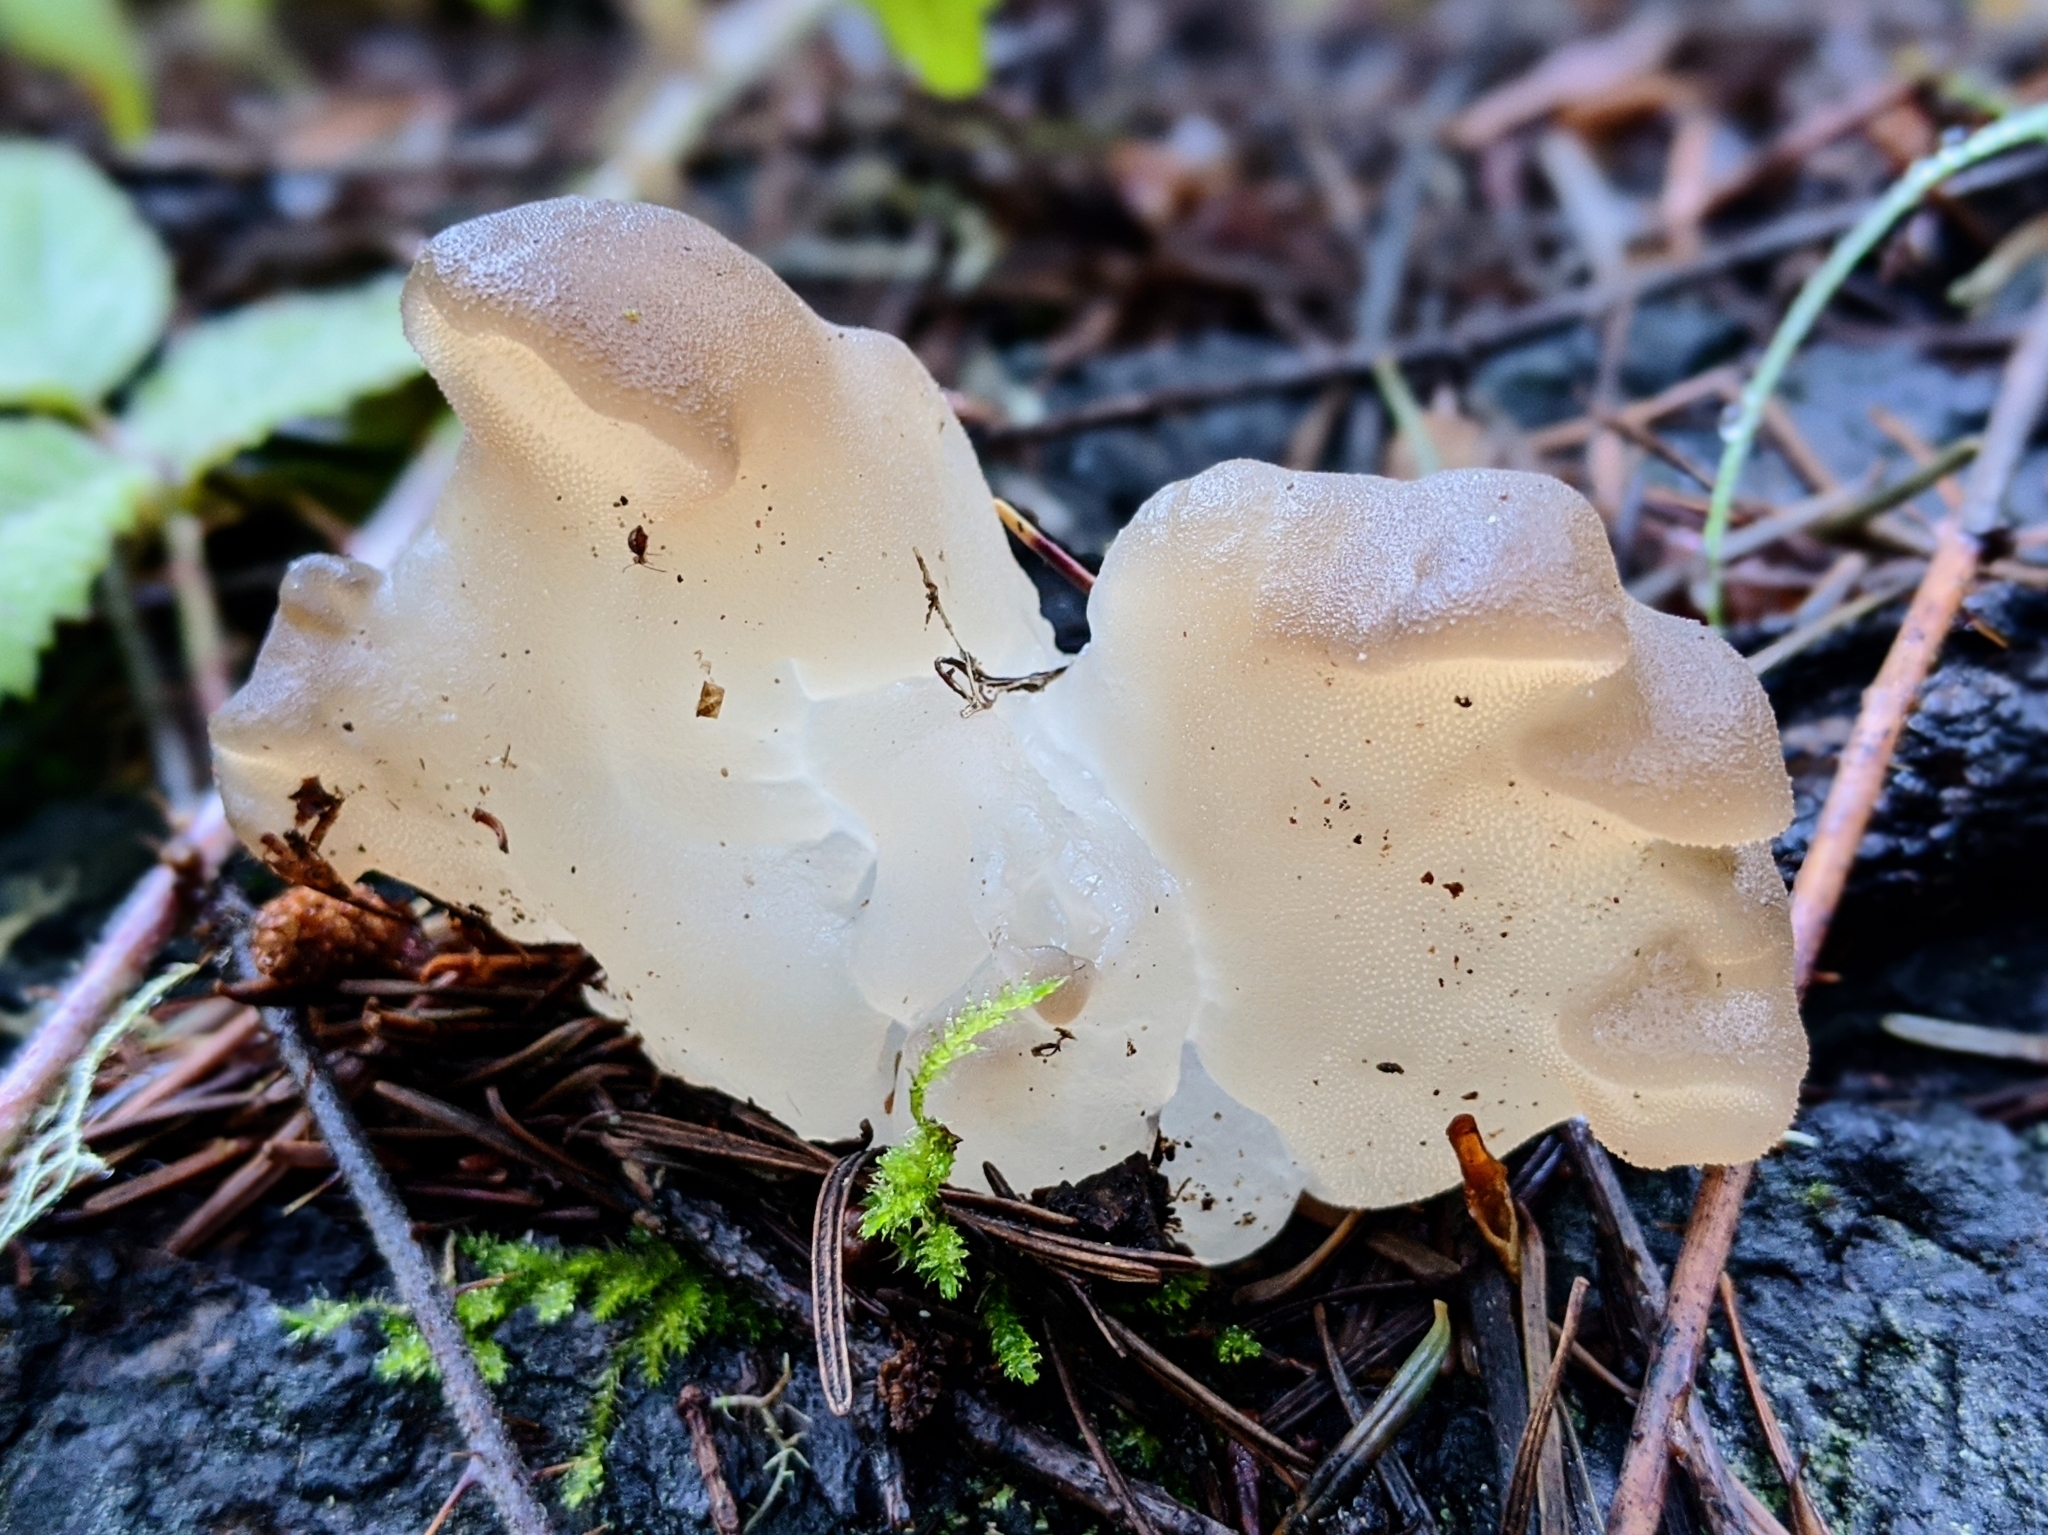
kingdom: Fungi
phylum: Basidiomycota
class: Agaricomycetes
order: Auriculariales
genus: Pseudohydnum
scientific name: Pseudohydnum gelatinosum
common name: Jelly tongue
